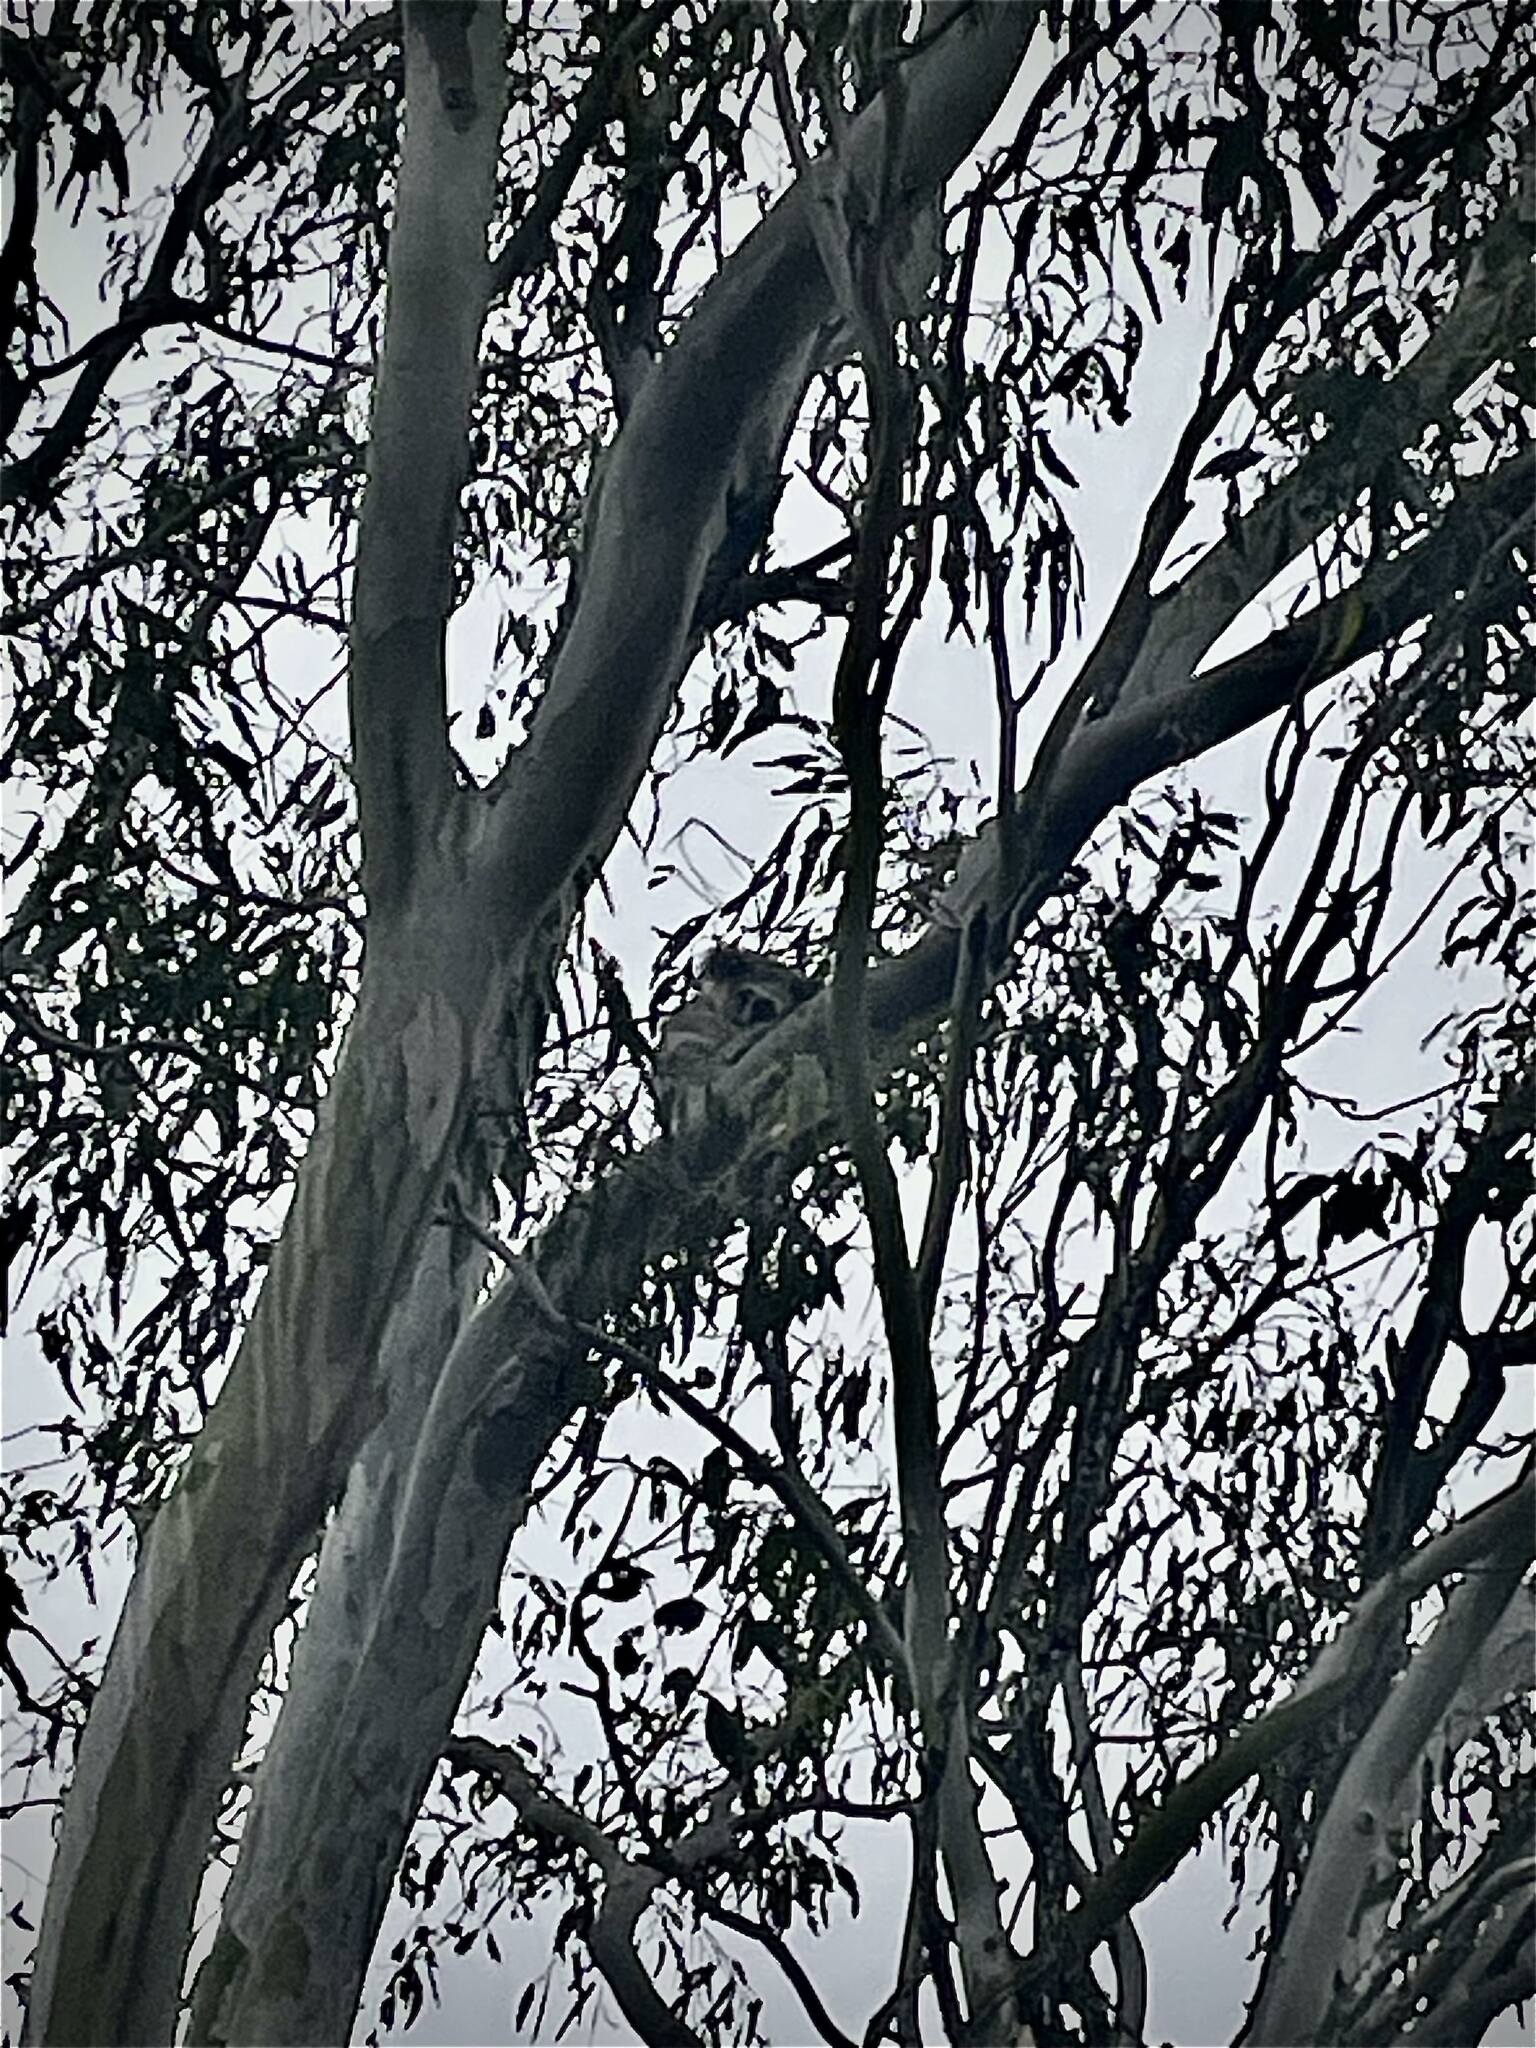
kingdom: Animalia
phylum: Chordata
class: Mammalia
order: Diprotodontia
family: Phascolarctidae
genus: Phascolarctos
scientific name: Phascolarctos cinereus
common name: Koala
